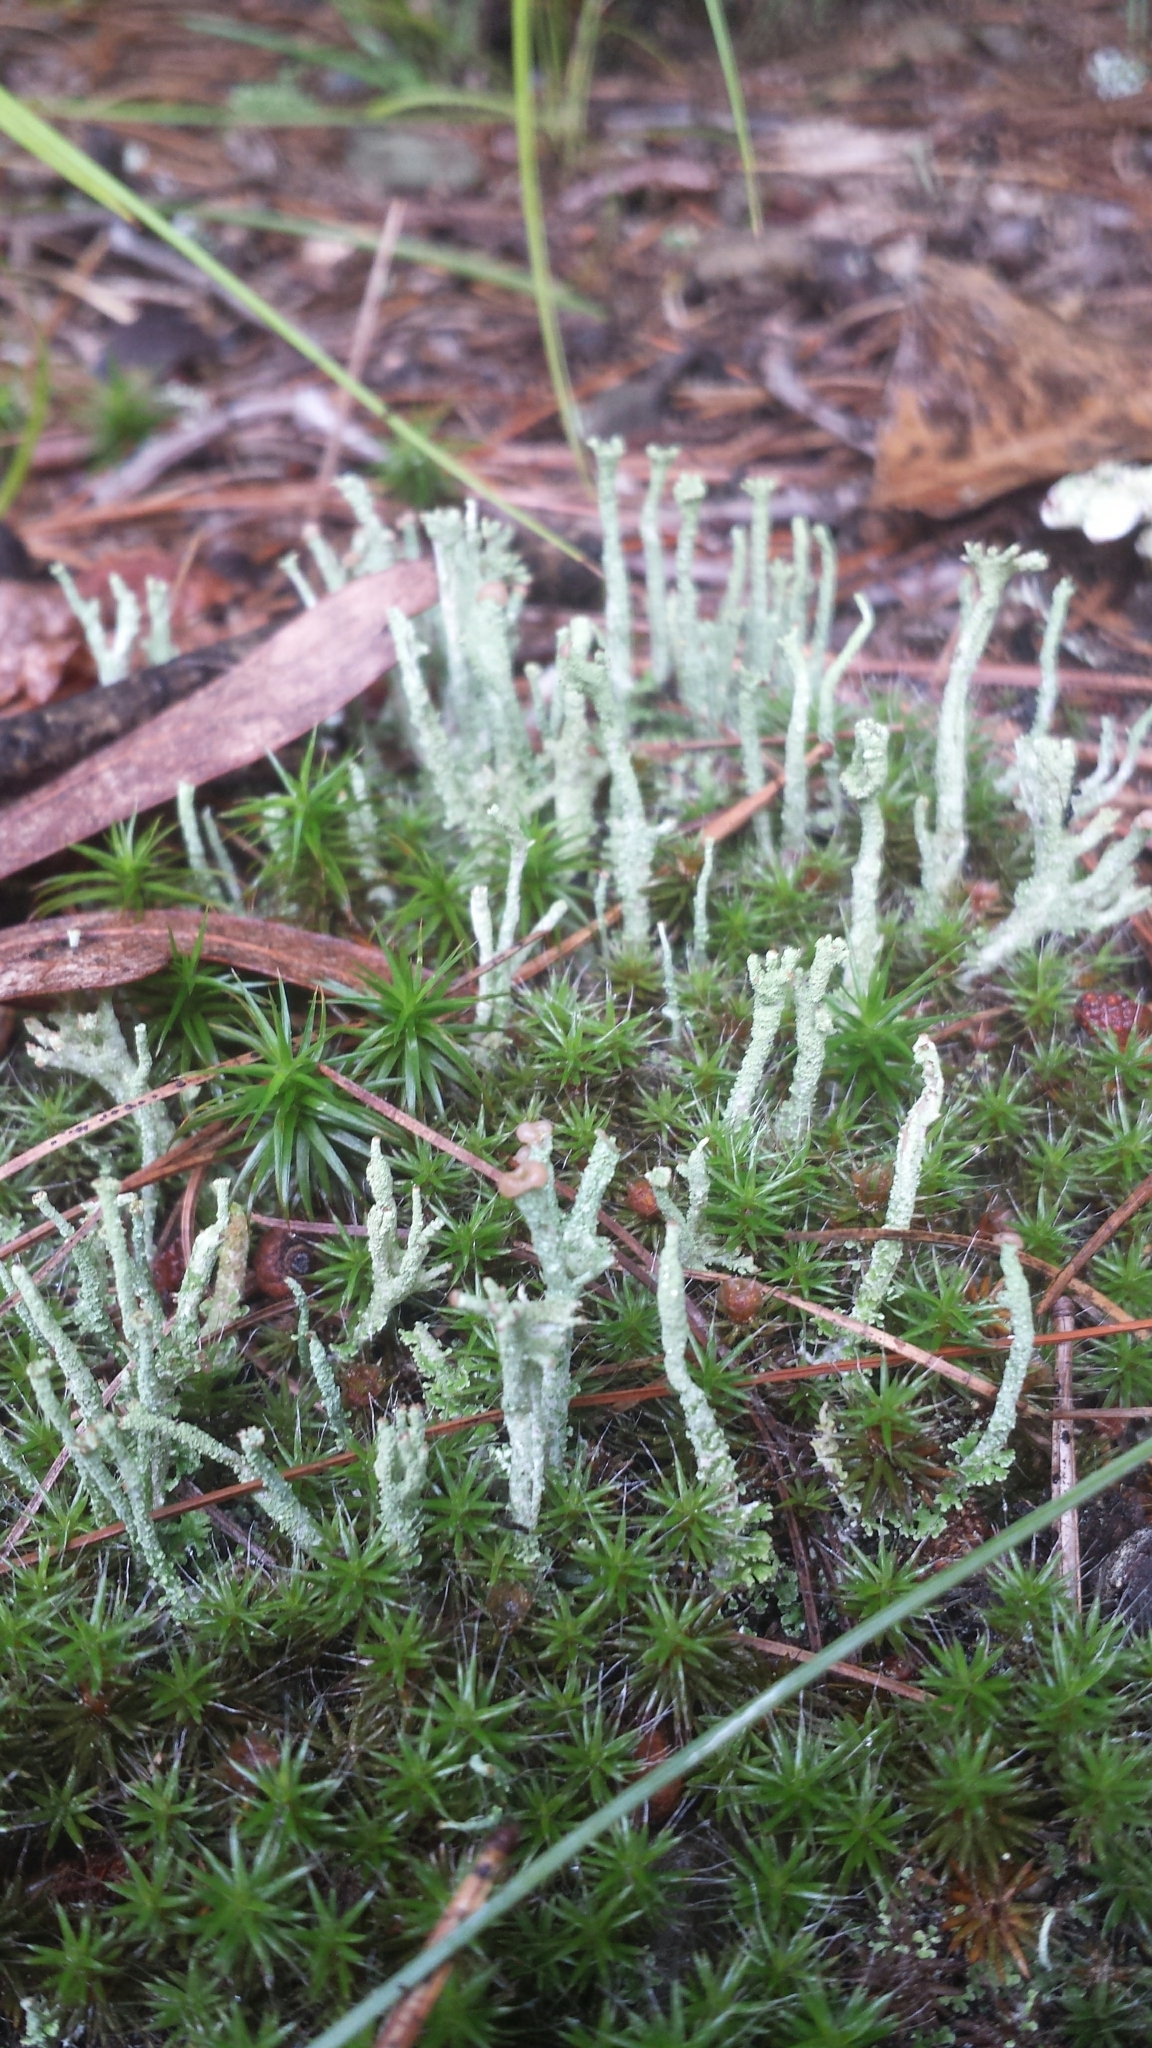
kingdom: Fungi
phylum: Ascomycota
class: Lecanoromycetes
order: Lecanorales
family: Cladoniaceae
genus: Cladonia
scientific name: Cladonia cristatella
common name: British soldier lichen
